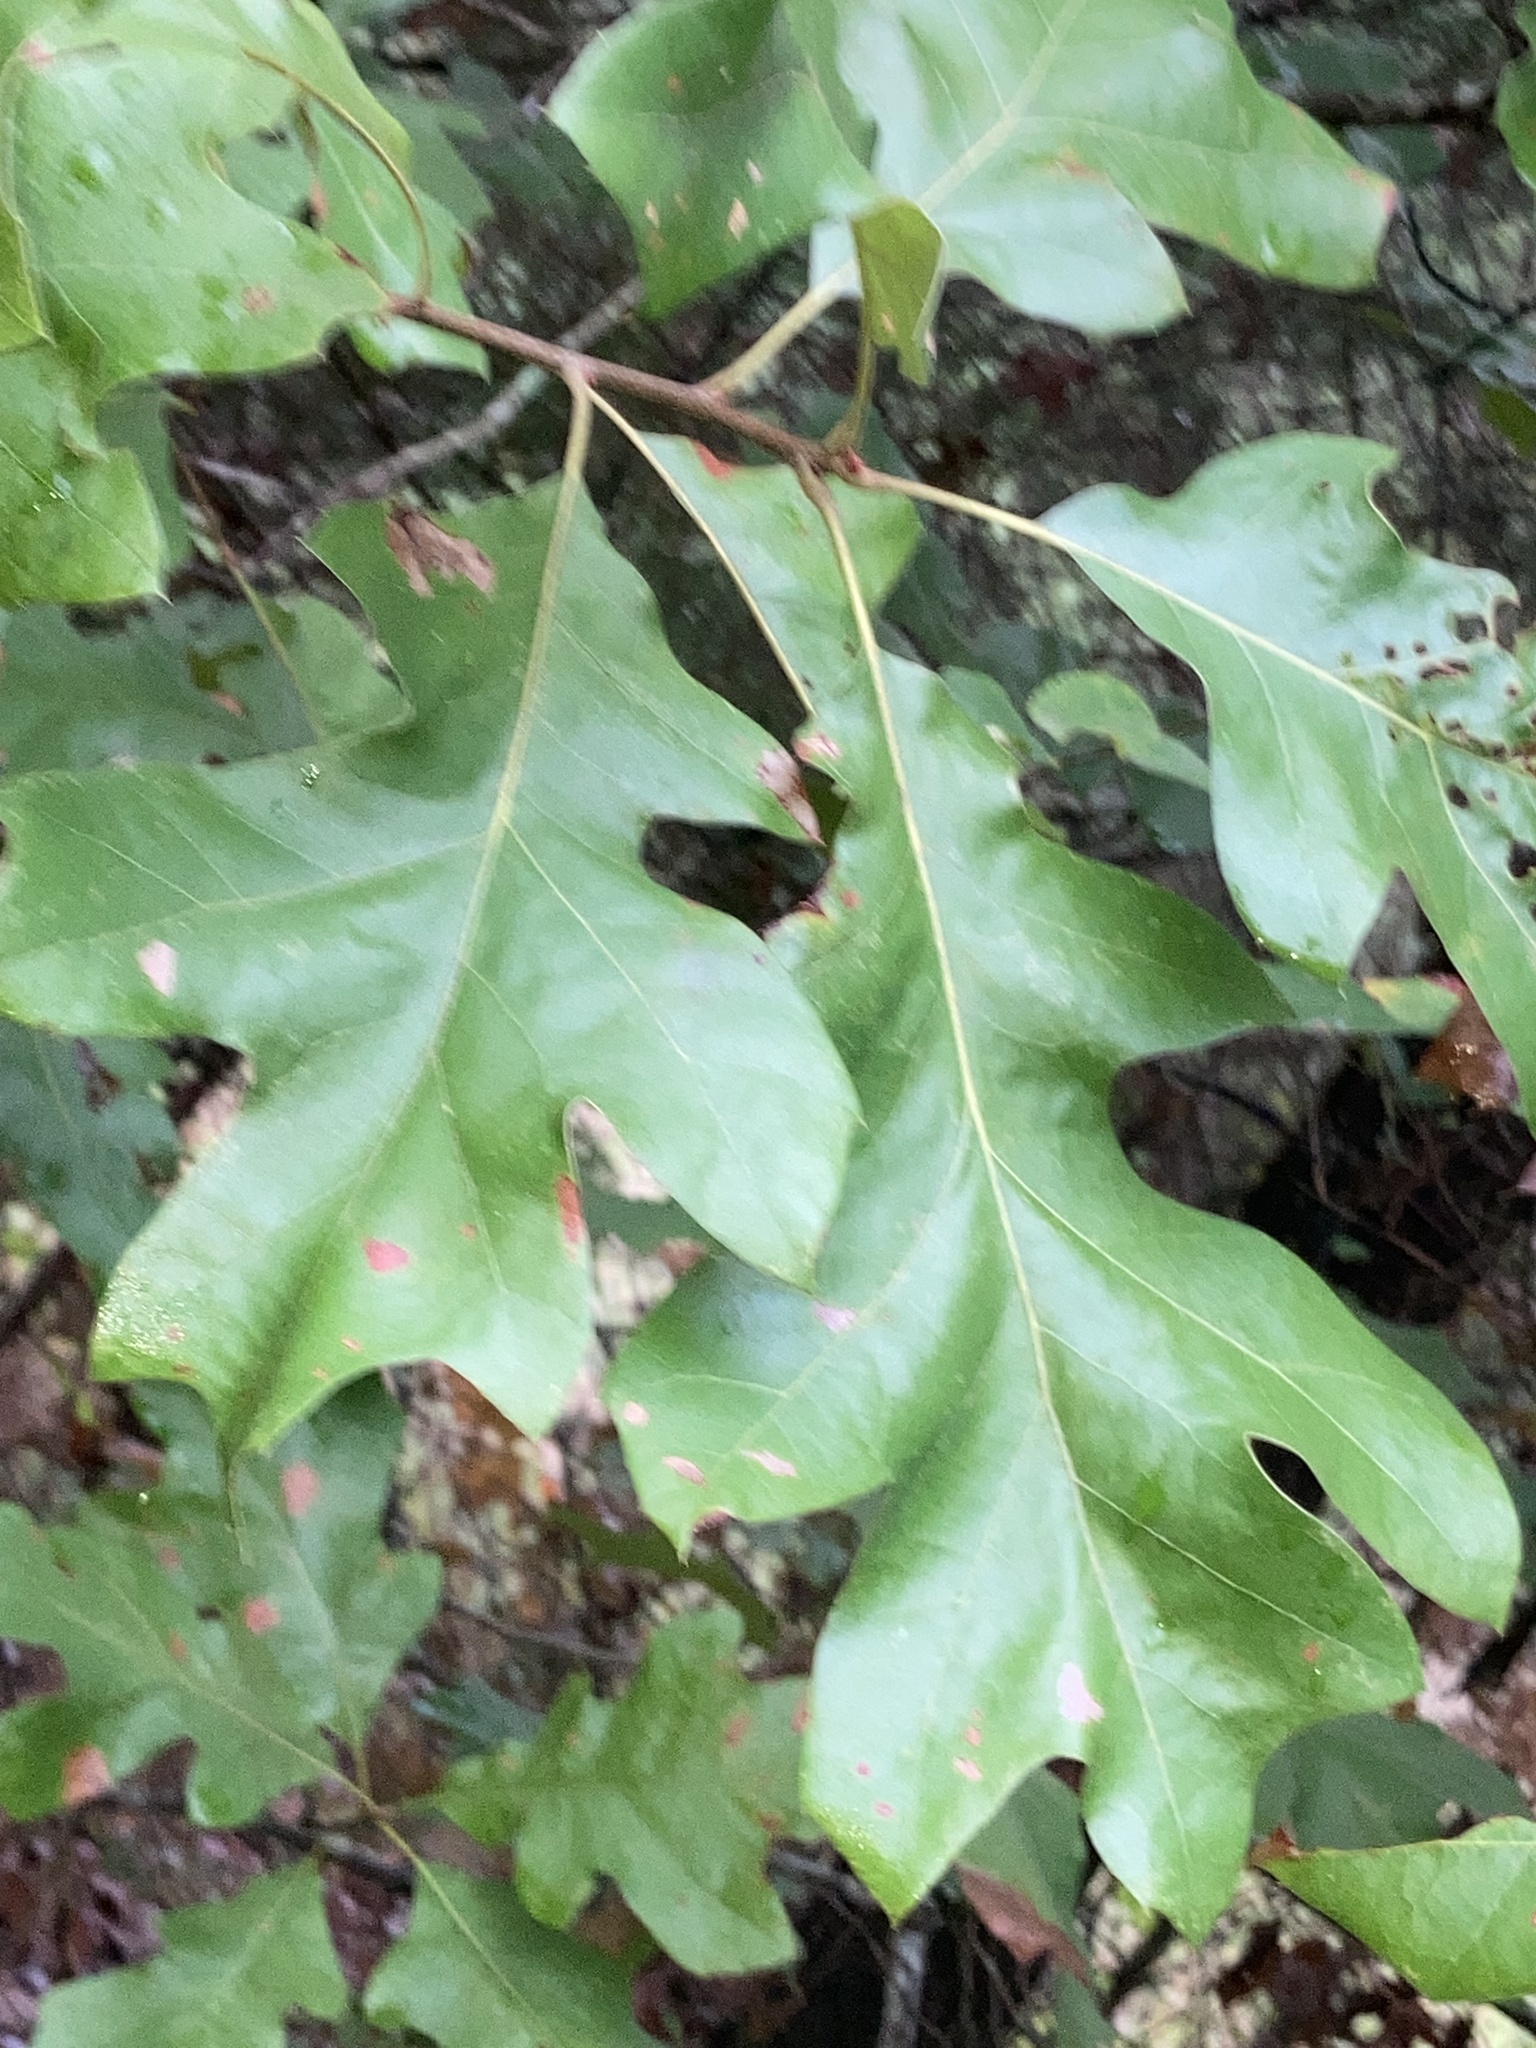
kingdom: Plantae
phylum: Tracheophyta
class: Magnoliopsida
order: Fagales
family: Fagaceae
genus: Quercus
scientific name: Quercus velutina
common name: Black oak
